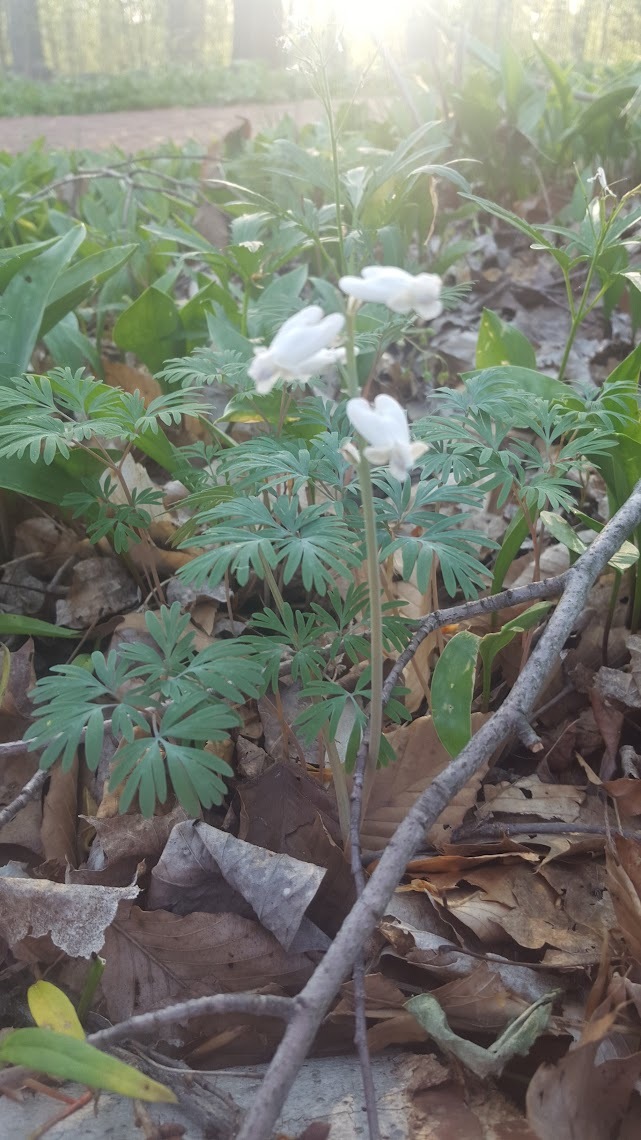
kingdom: Plantae
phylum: Tracheophyta
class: Magnoliopsida
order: Ranunculales
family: Papaveraceae
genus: Dicentra
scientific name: Dicentra canadensis
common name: Squirrel-corn
